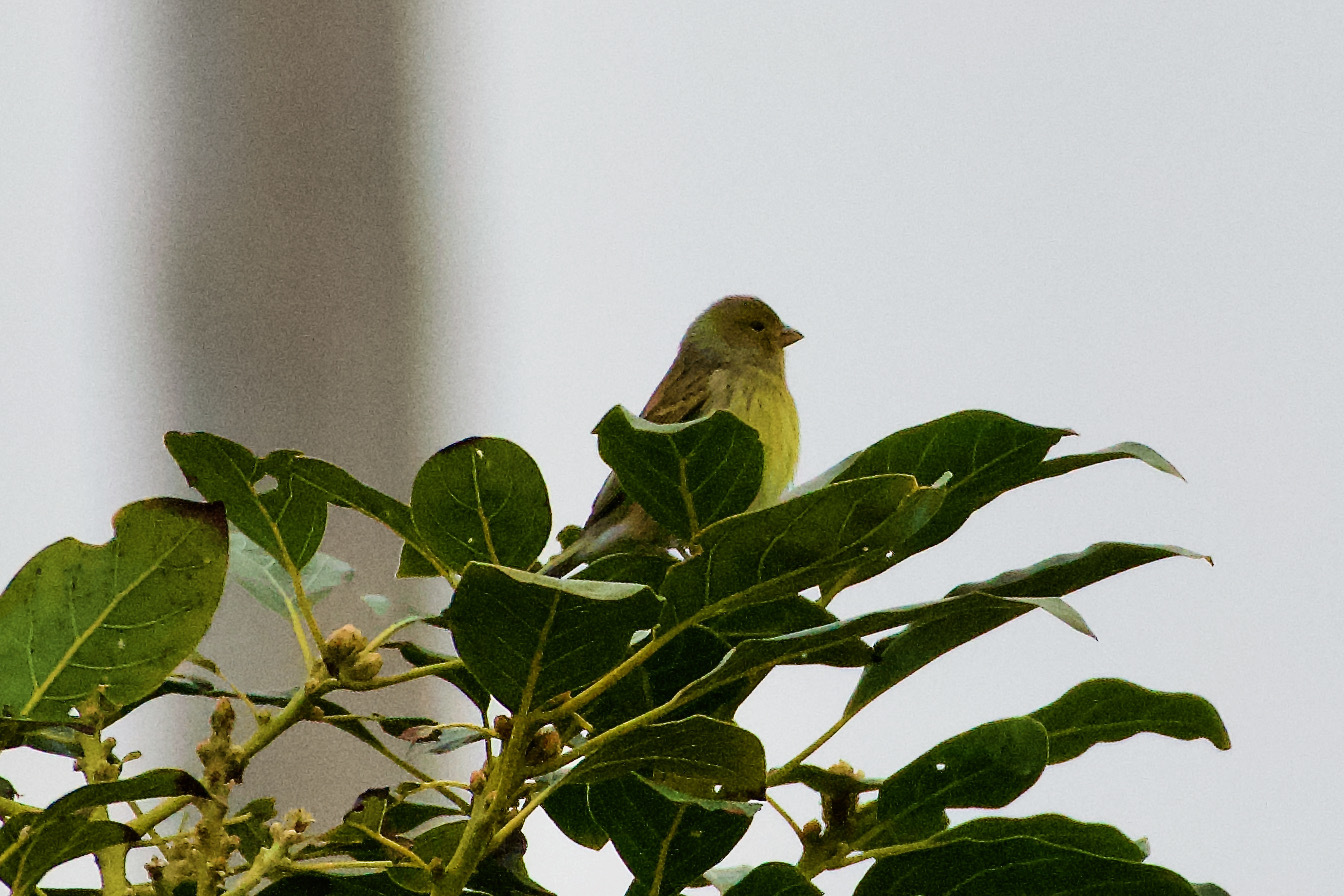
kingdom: Animalia
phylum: Chordata
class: Aves
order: Passeriformes
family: Fringillidae
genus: Serinus
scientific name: Serinus canaria
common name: Atlantic canary
